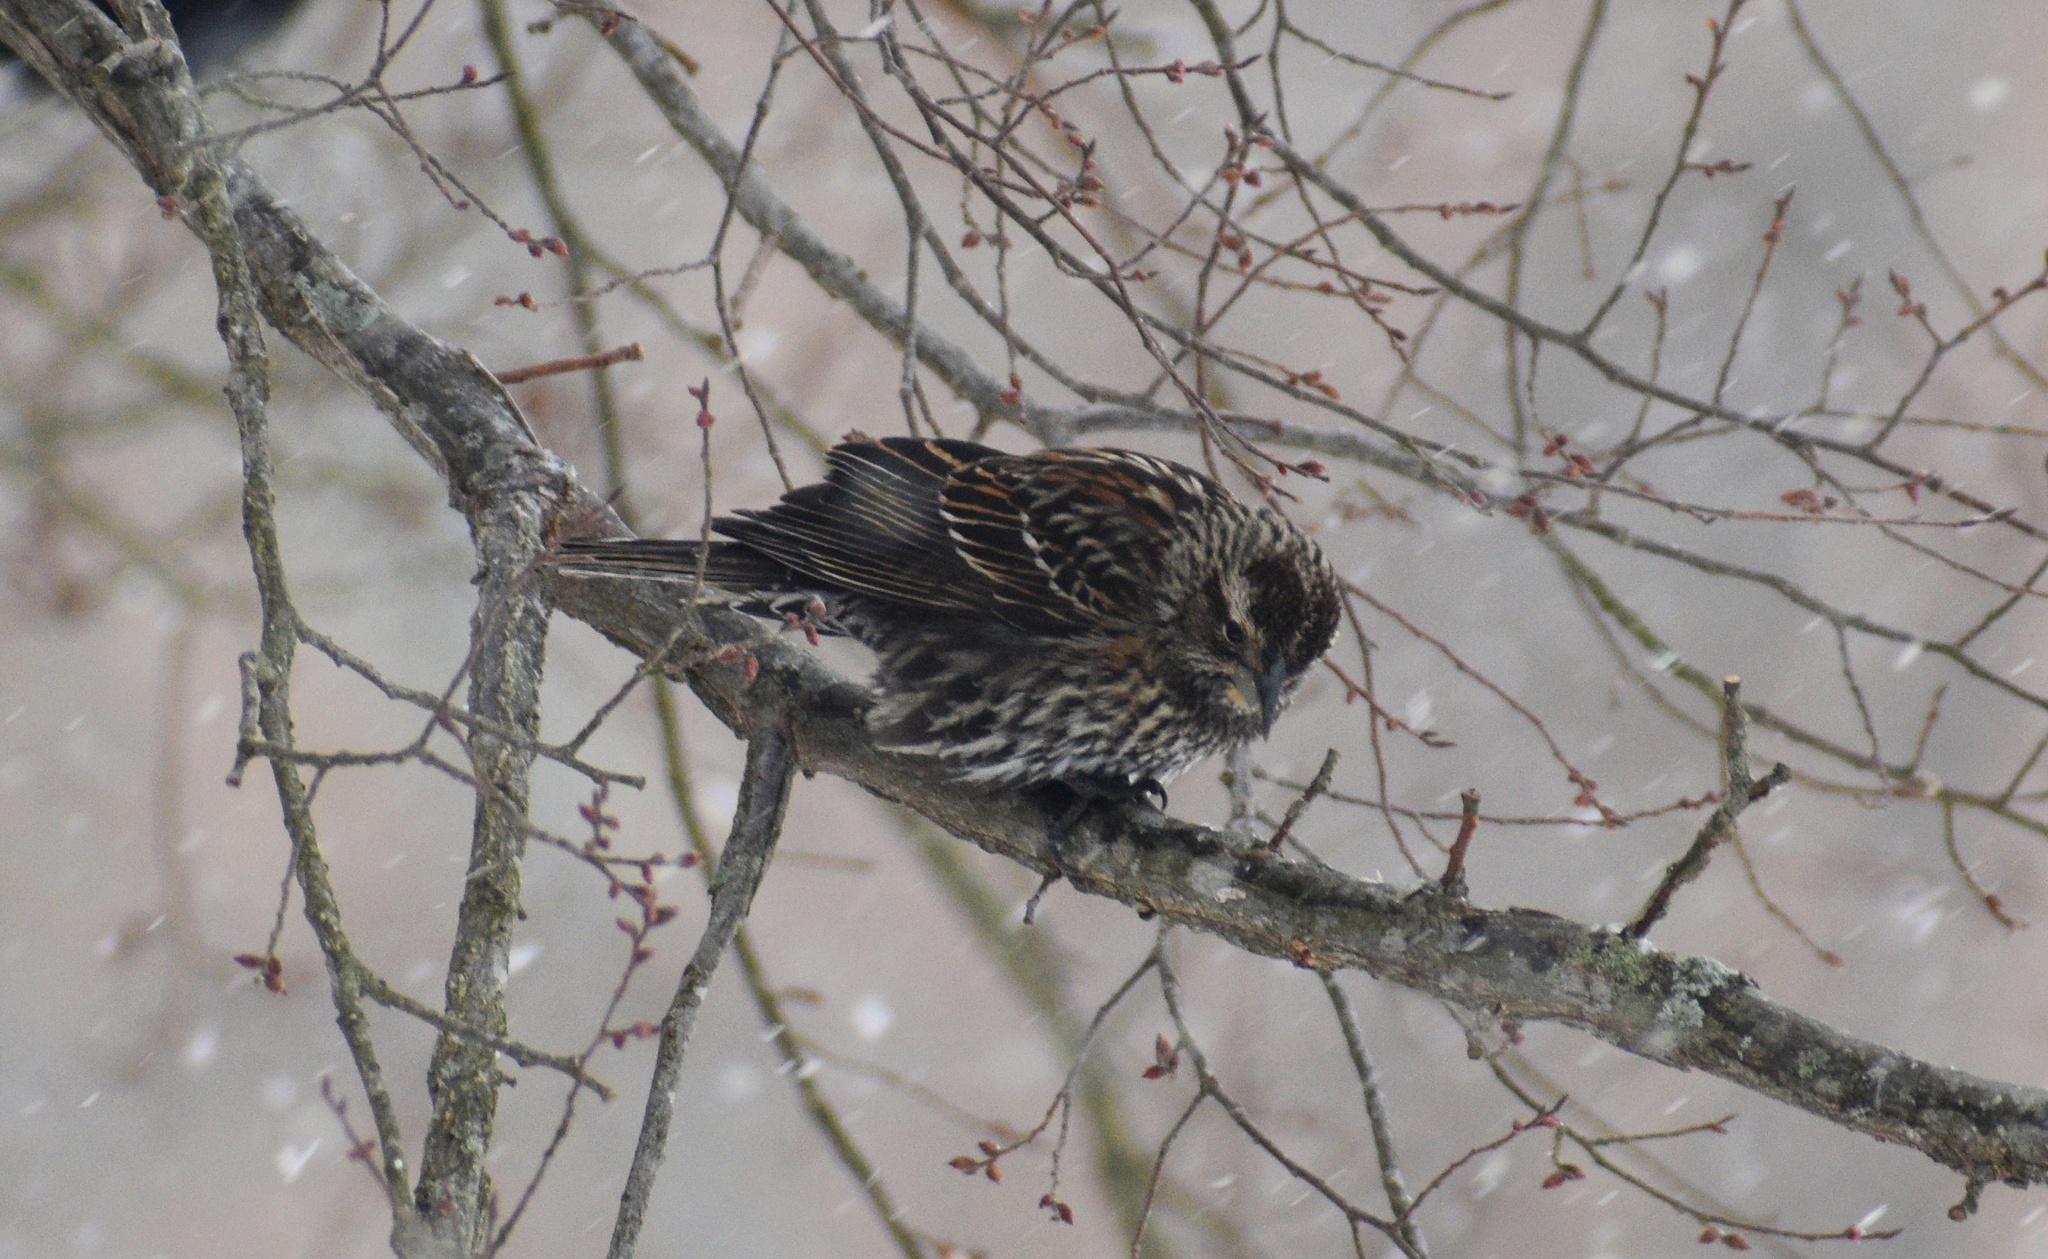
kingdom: Animalia
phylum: Chordata
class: Aves
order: Passeriformes
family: Icteridae
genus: Agelaius
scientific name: Agelaius phoeniceus
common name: Red-winged blackbird
